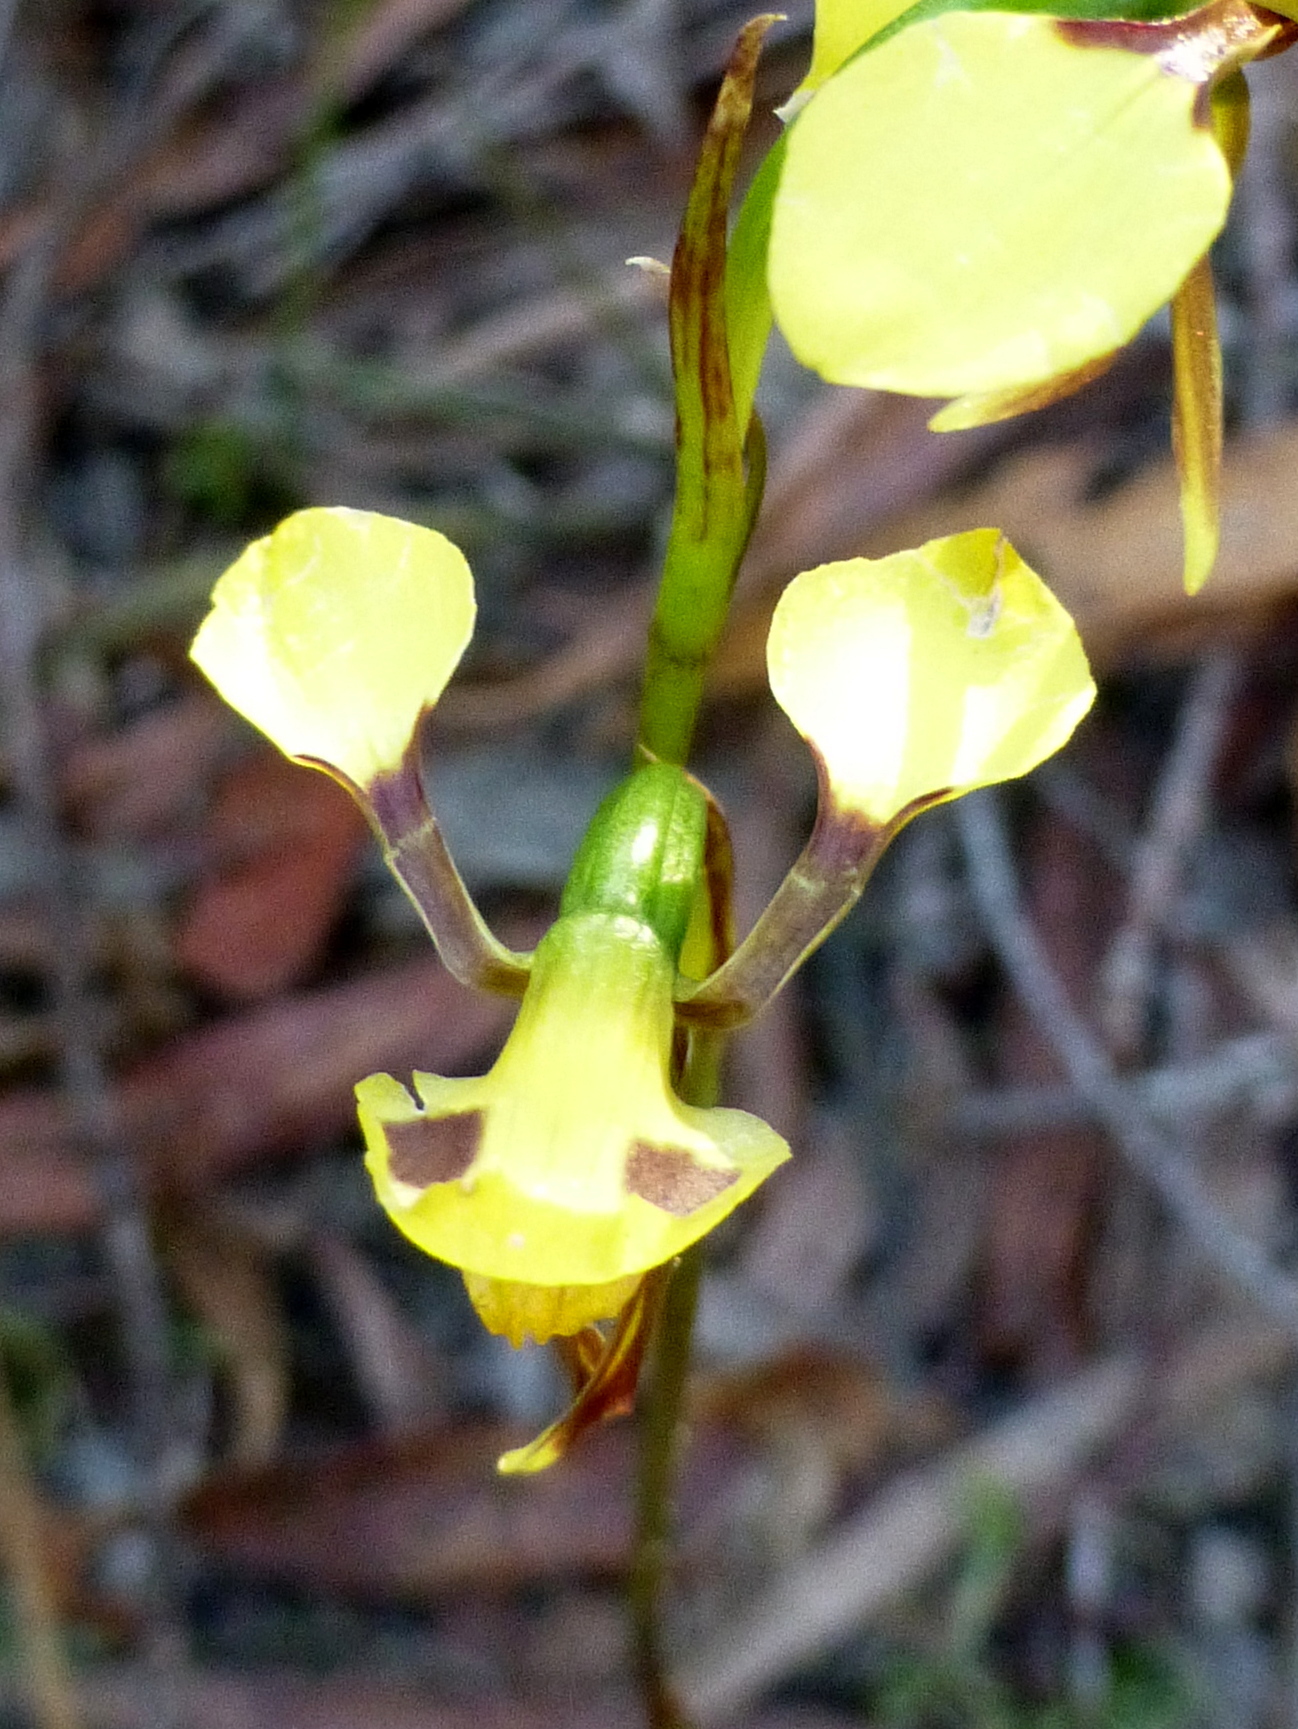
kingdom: Plantae
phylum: Tracheophyta
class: Liliopsida
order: Asparagales
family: Orchidaceae
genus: Diuris
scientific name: Diuris sulphurea
